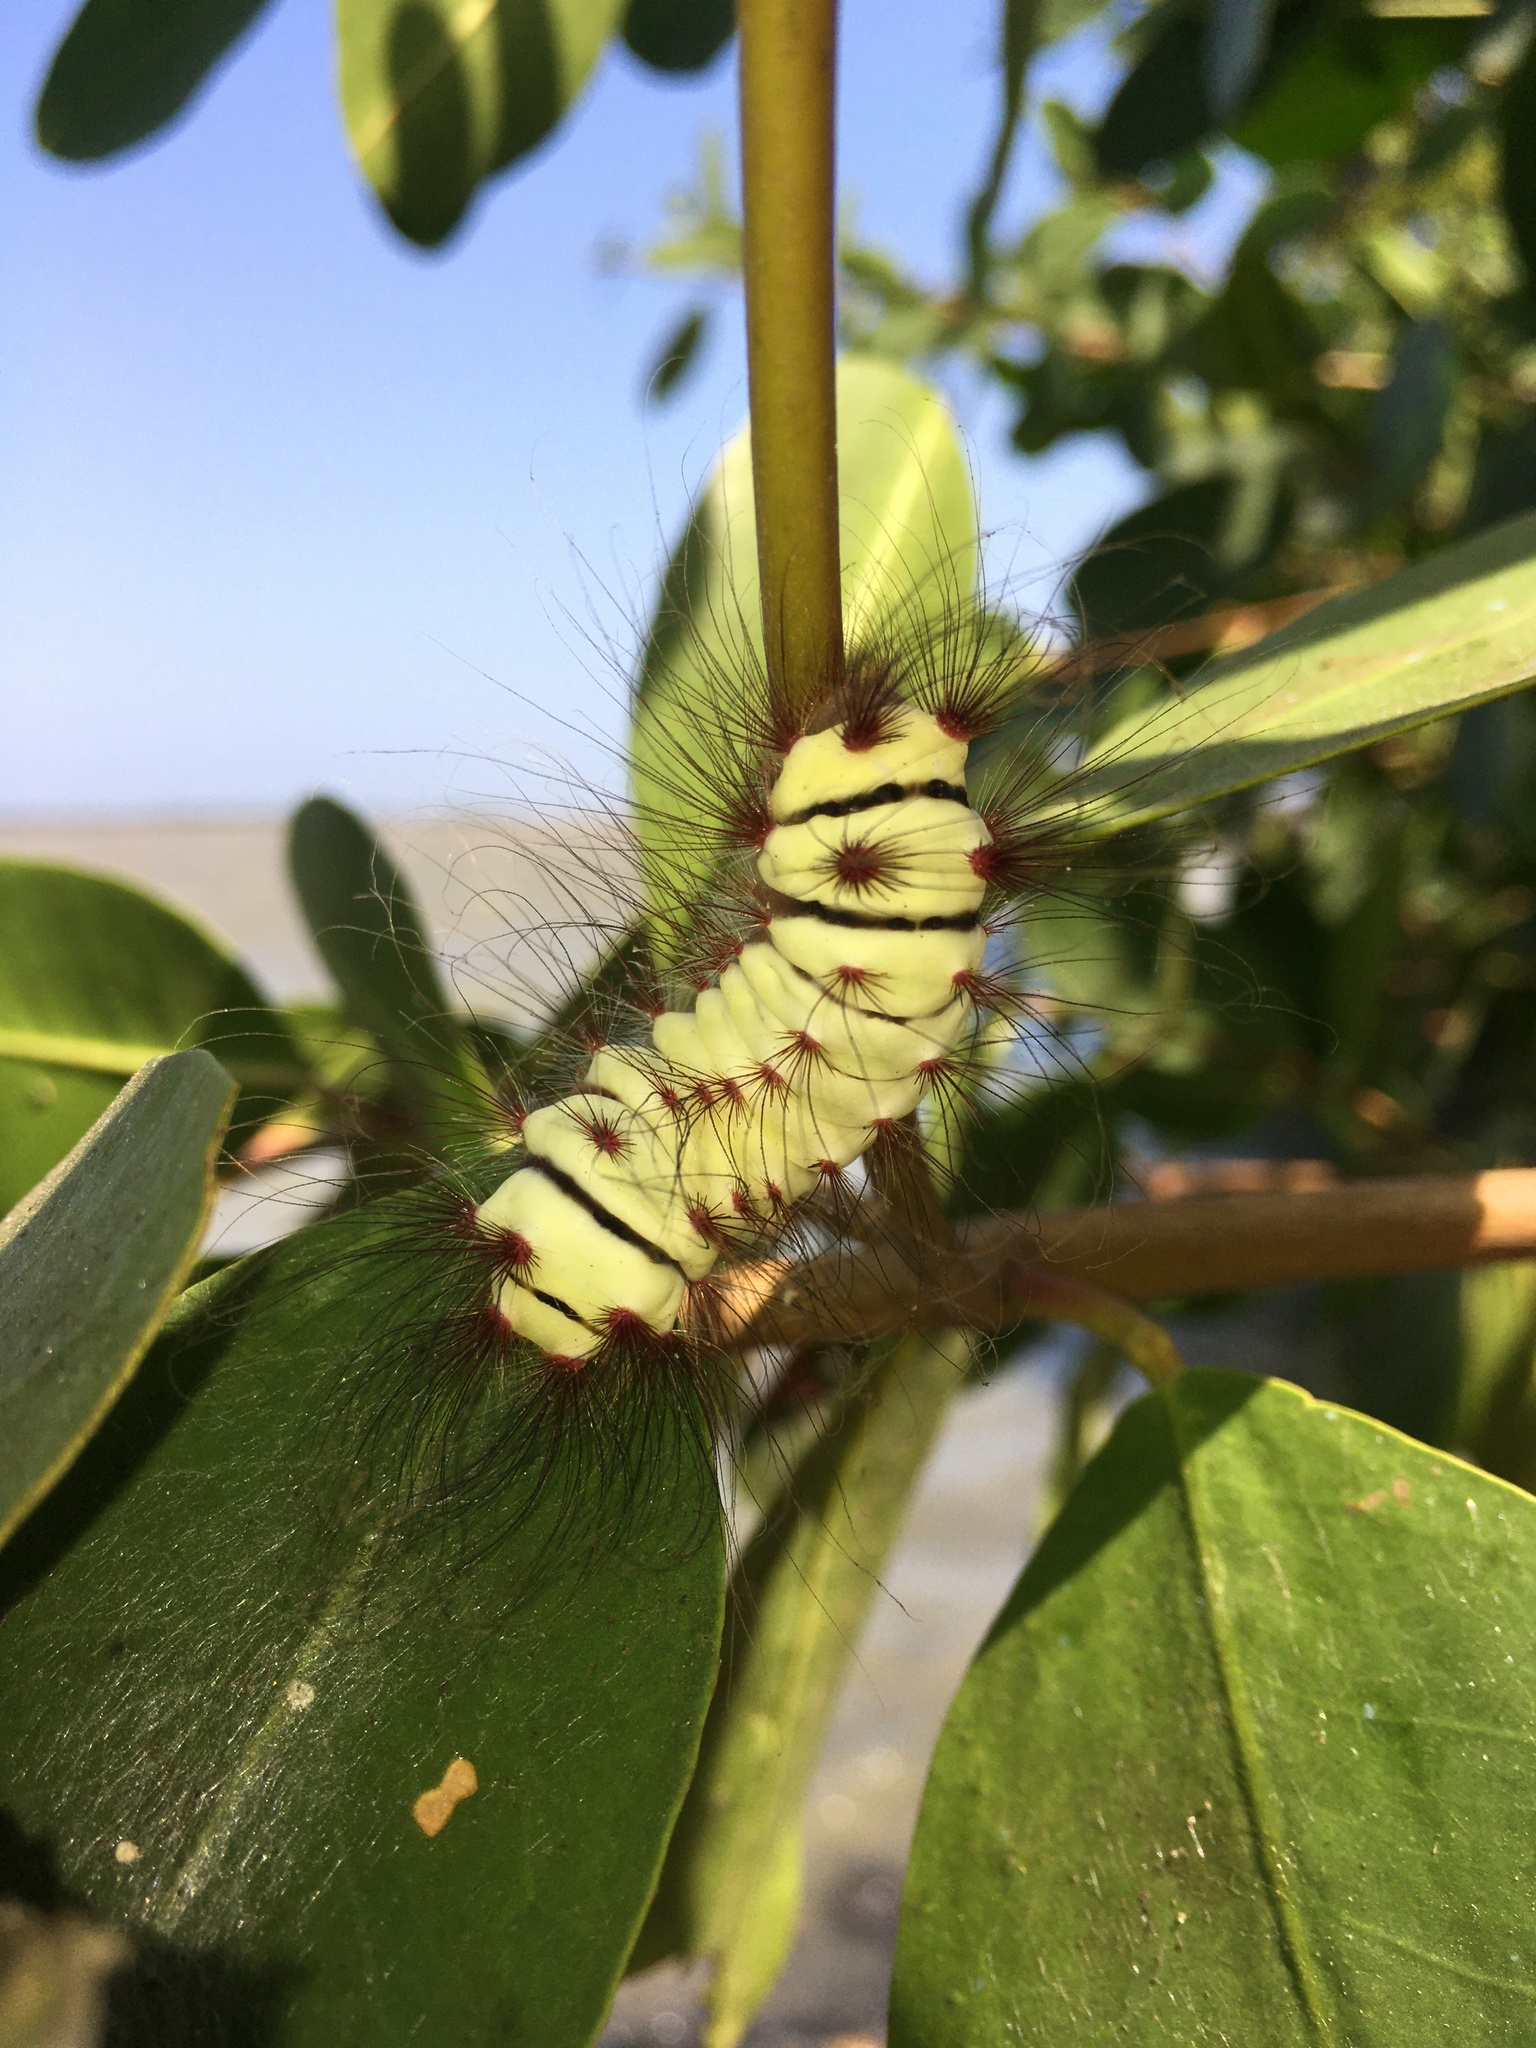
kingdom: Animalia
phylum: Arthropoda
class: Insecta
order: Lepidoptera
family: Megalopygidae
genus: Megalopyge
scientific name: Megalopyge lanata
